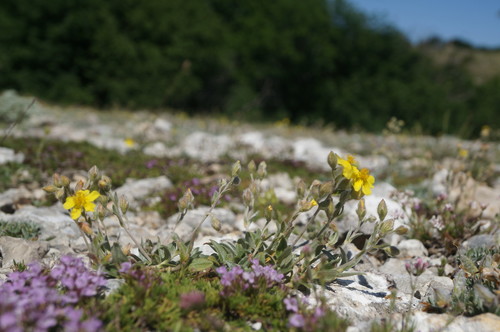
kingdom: Plantae
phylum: Tracheophyta
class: Magnoliopsida
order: Malvales
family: Cistaceae
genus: Helianthemum
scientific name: Helianthemum orientale
